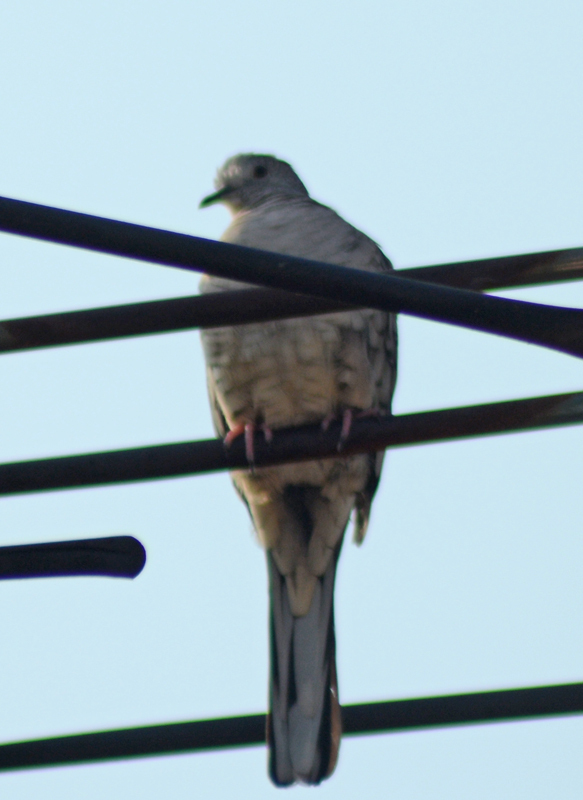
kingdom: Animalia
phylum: Chordata
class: Aves
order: Columbiformes
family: Columbidae
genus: Columbina
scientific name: Columbina inca
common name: Inca dove
